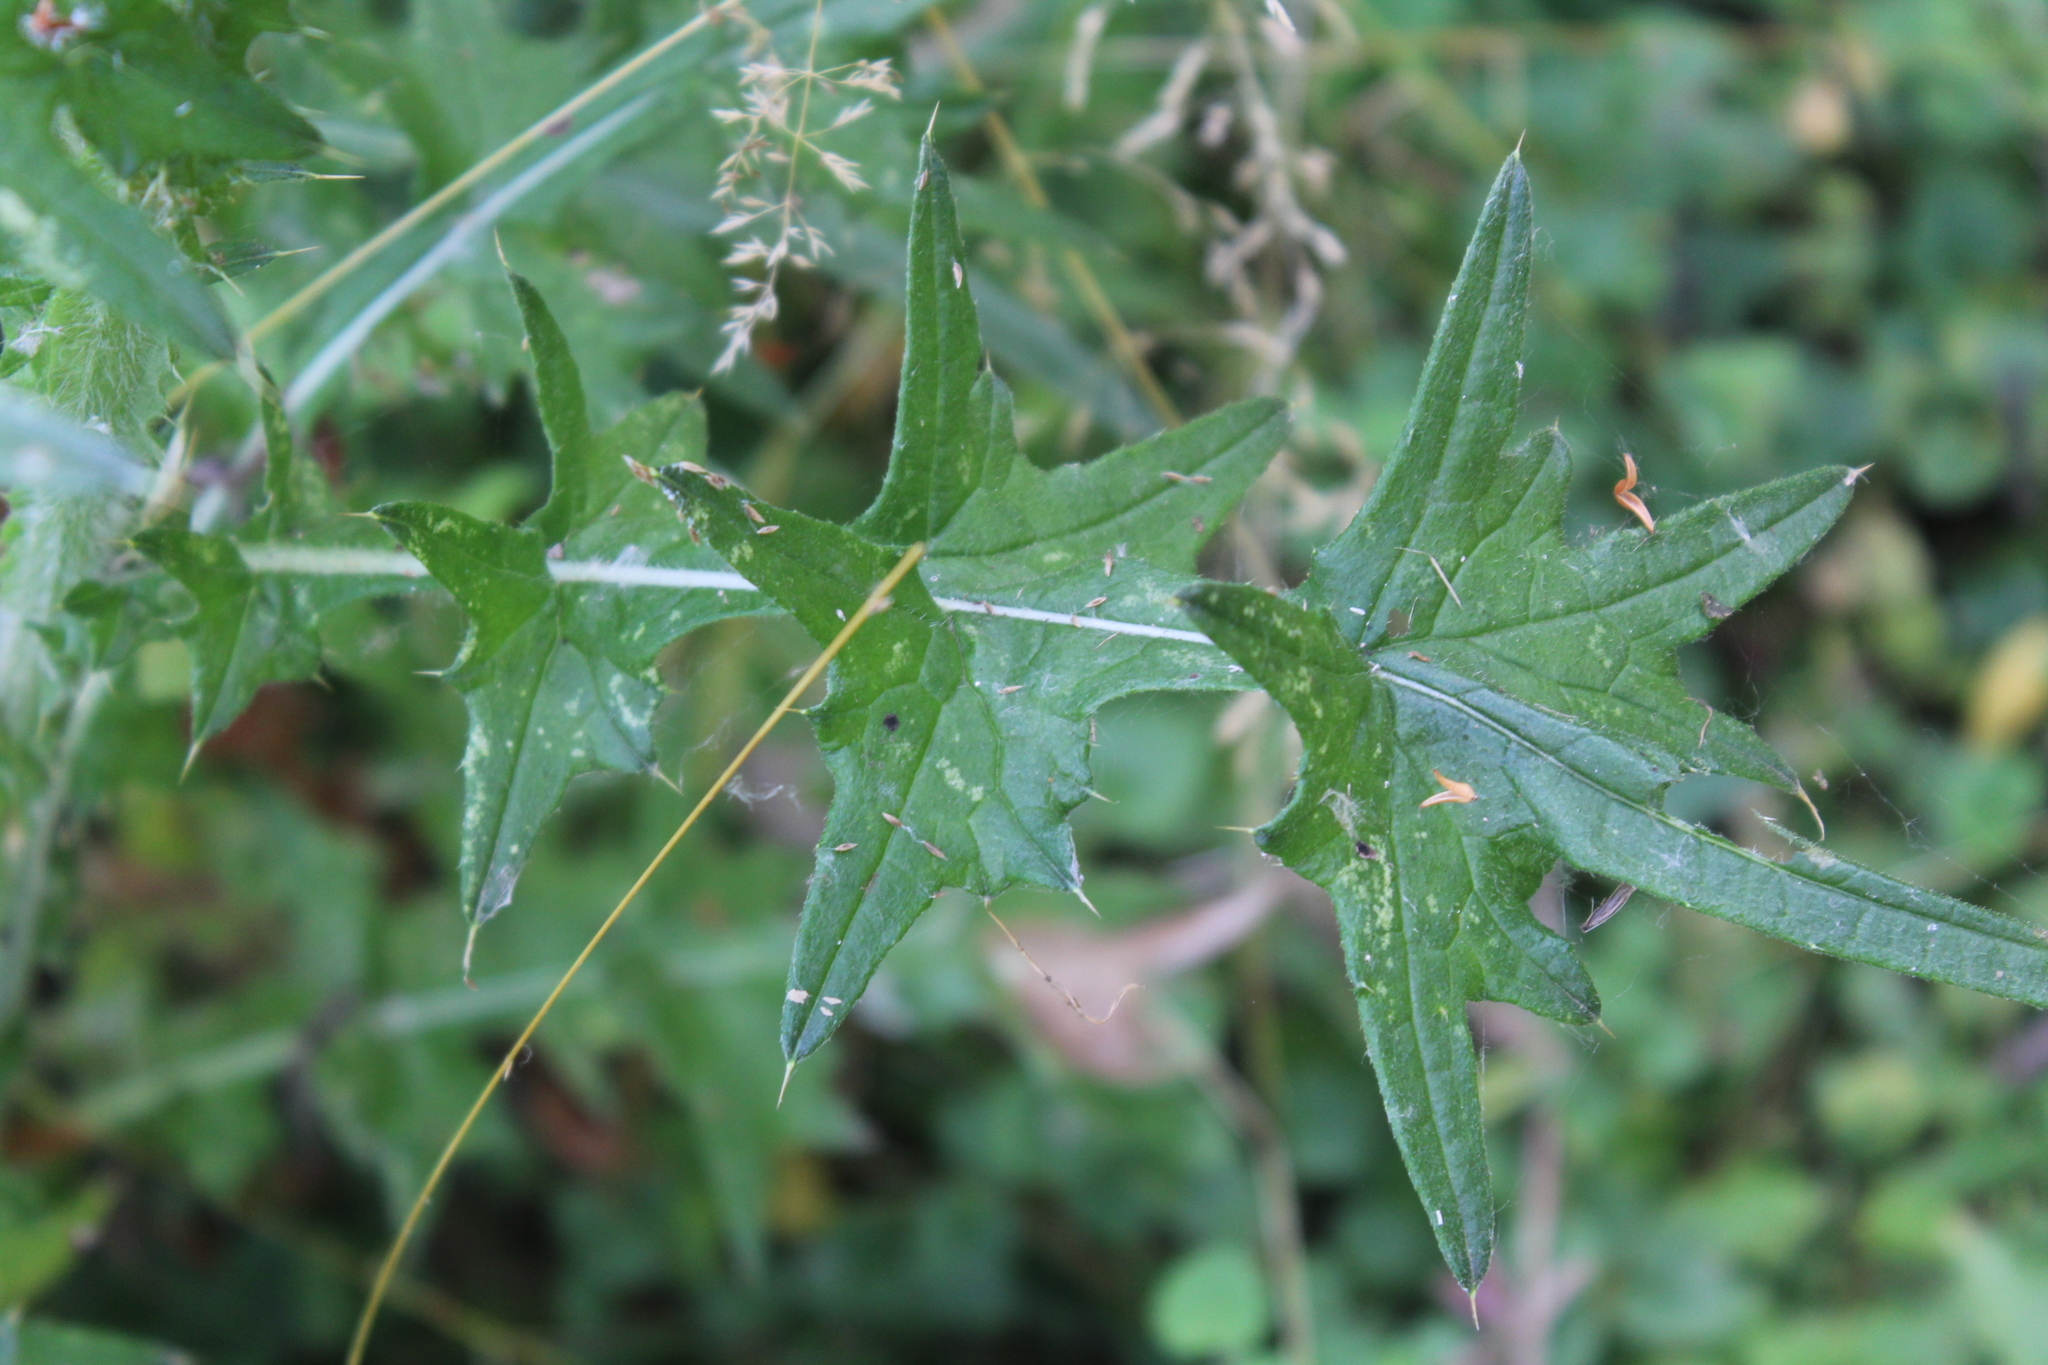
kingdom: Plantae
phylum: Tracheophyta
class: Magnoliopsida
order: Asterales
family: Asteraceae
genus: Cirsium
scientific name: Cirsium vulgare
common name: Bull thistle
